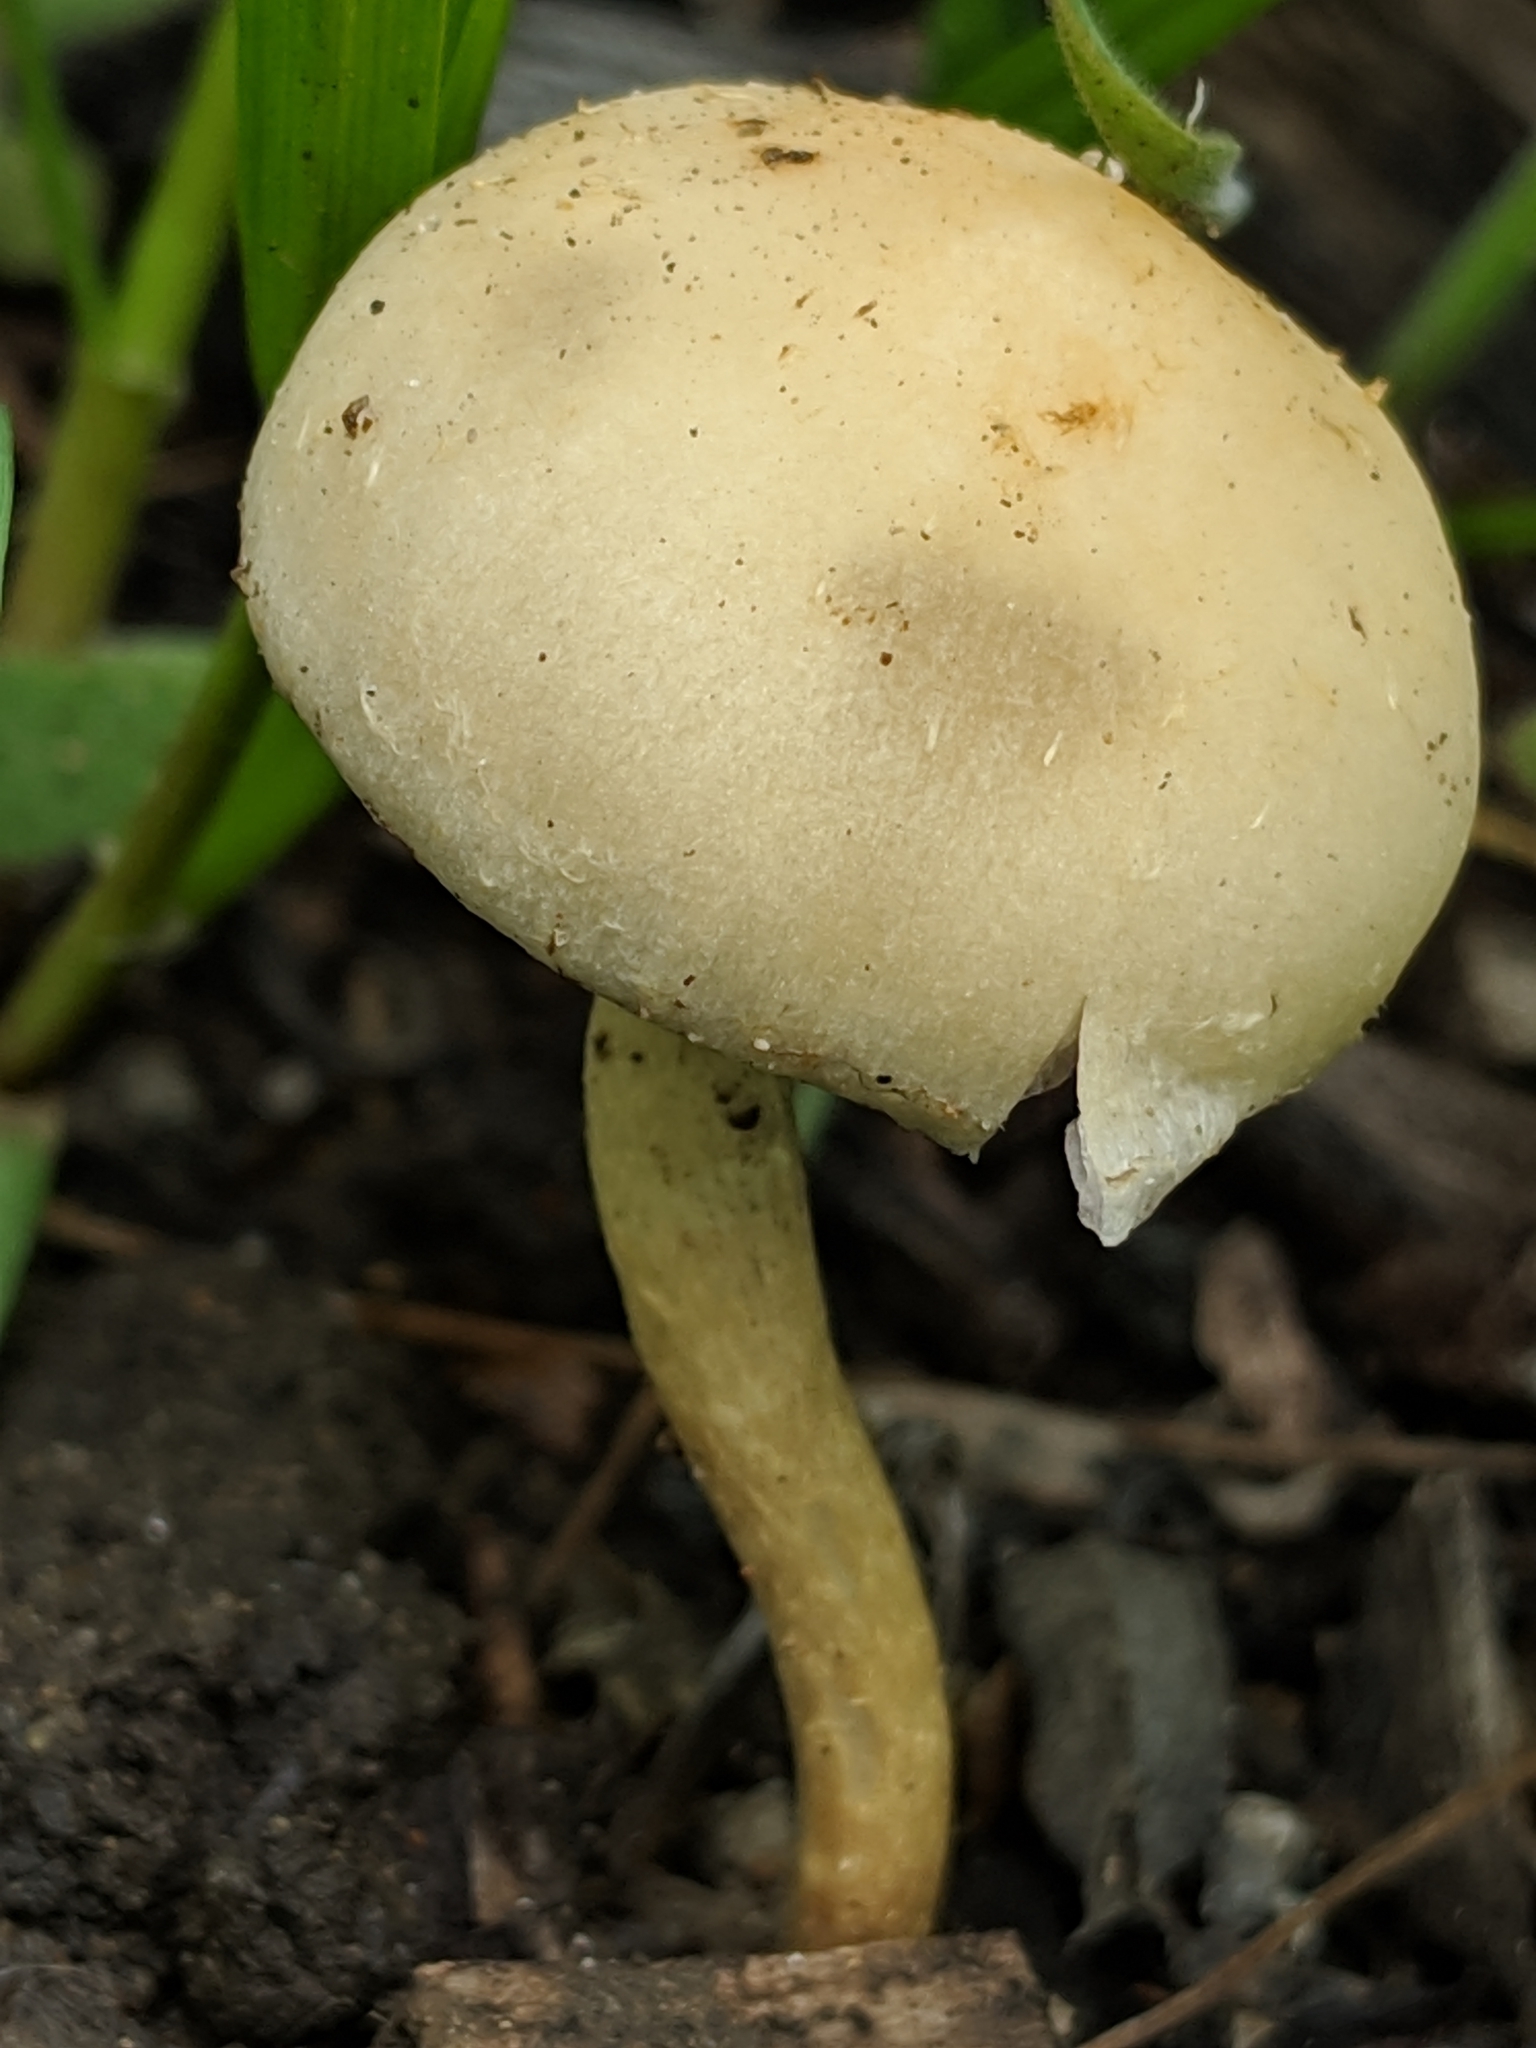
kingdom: Fungi
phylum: Basidiomycota
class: Agaricomycetes
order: Agaricales
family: Strophariaceae
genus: Leratiomyces
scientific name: Leratiomyces percevalii
